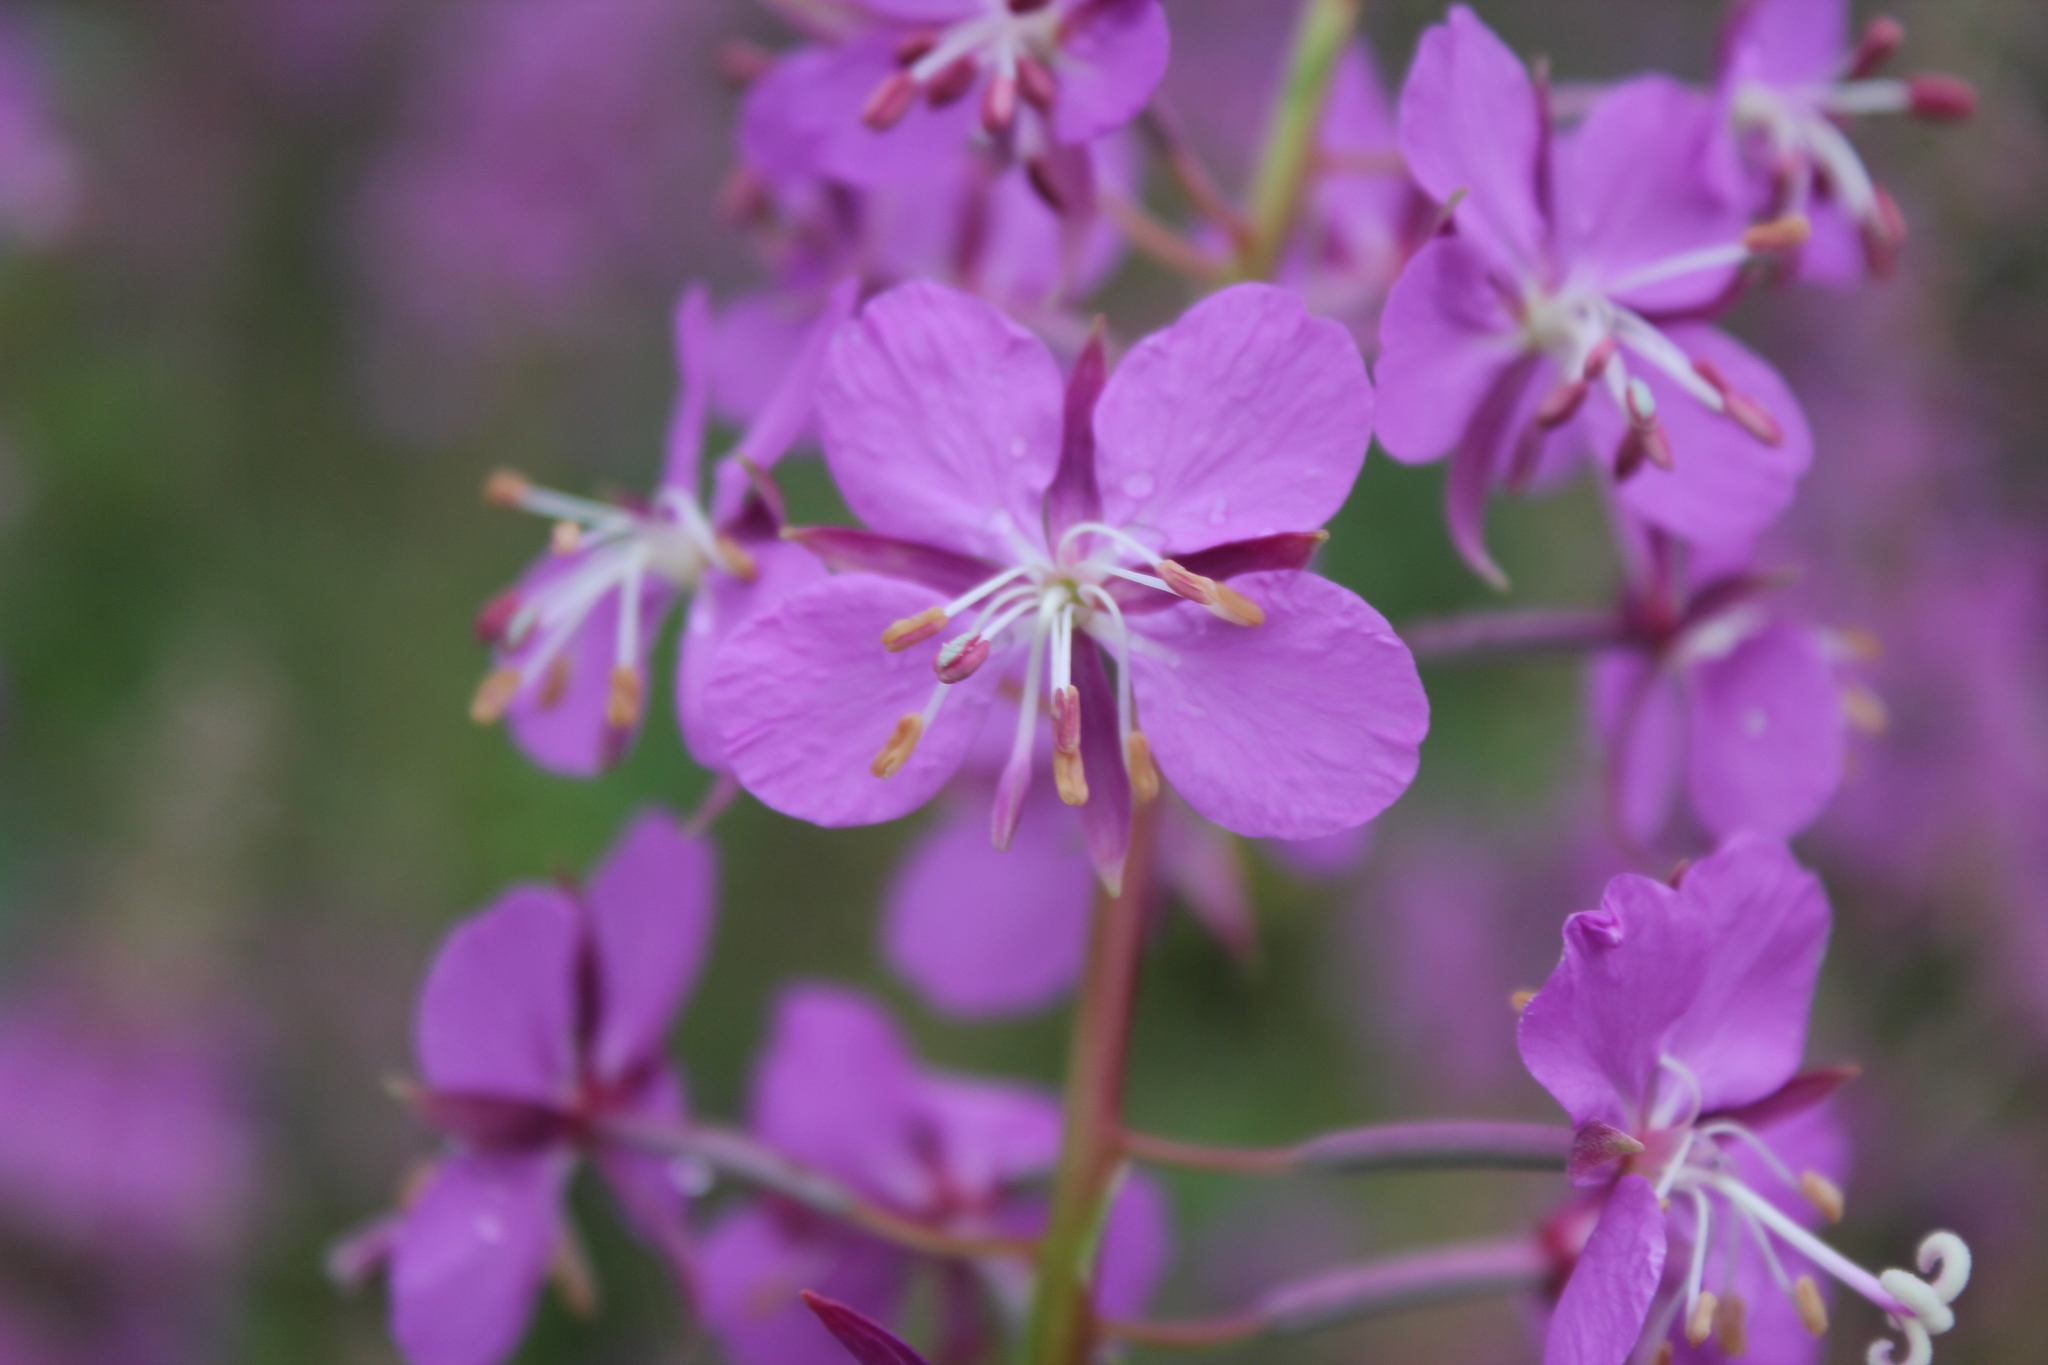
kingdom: Plantae
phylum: Tracheophyta
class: Magnoliopsida
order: Myrtales
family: Onagraceae
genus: Chamaenerion
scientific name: Chamaenerion angustifolium
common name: Fireweed
